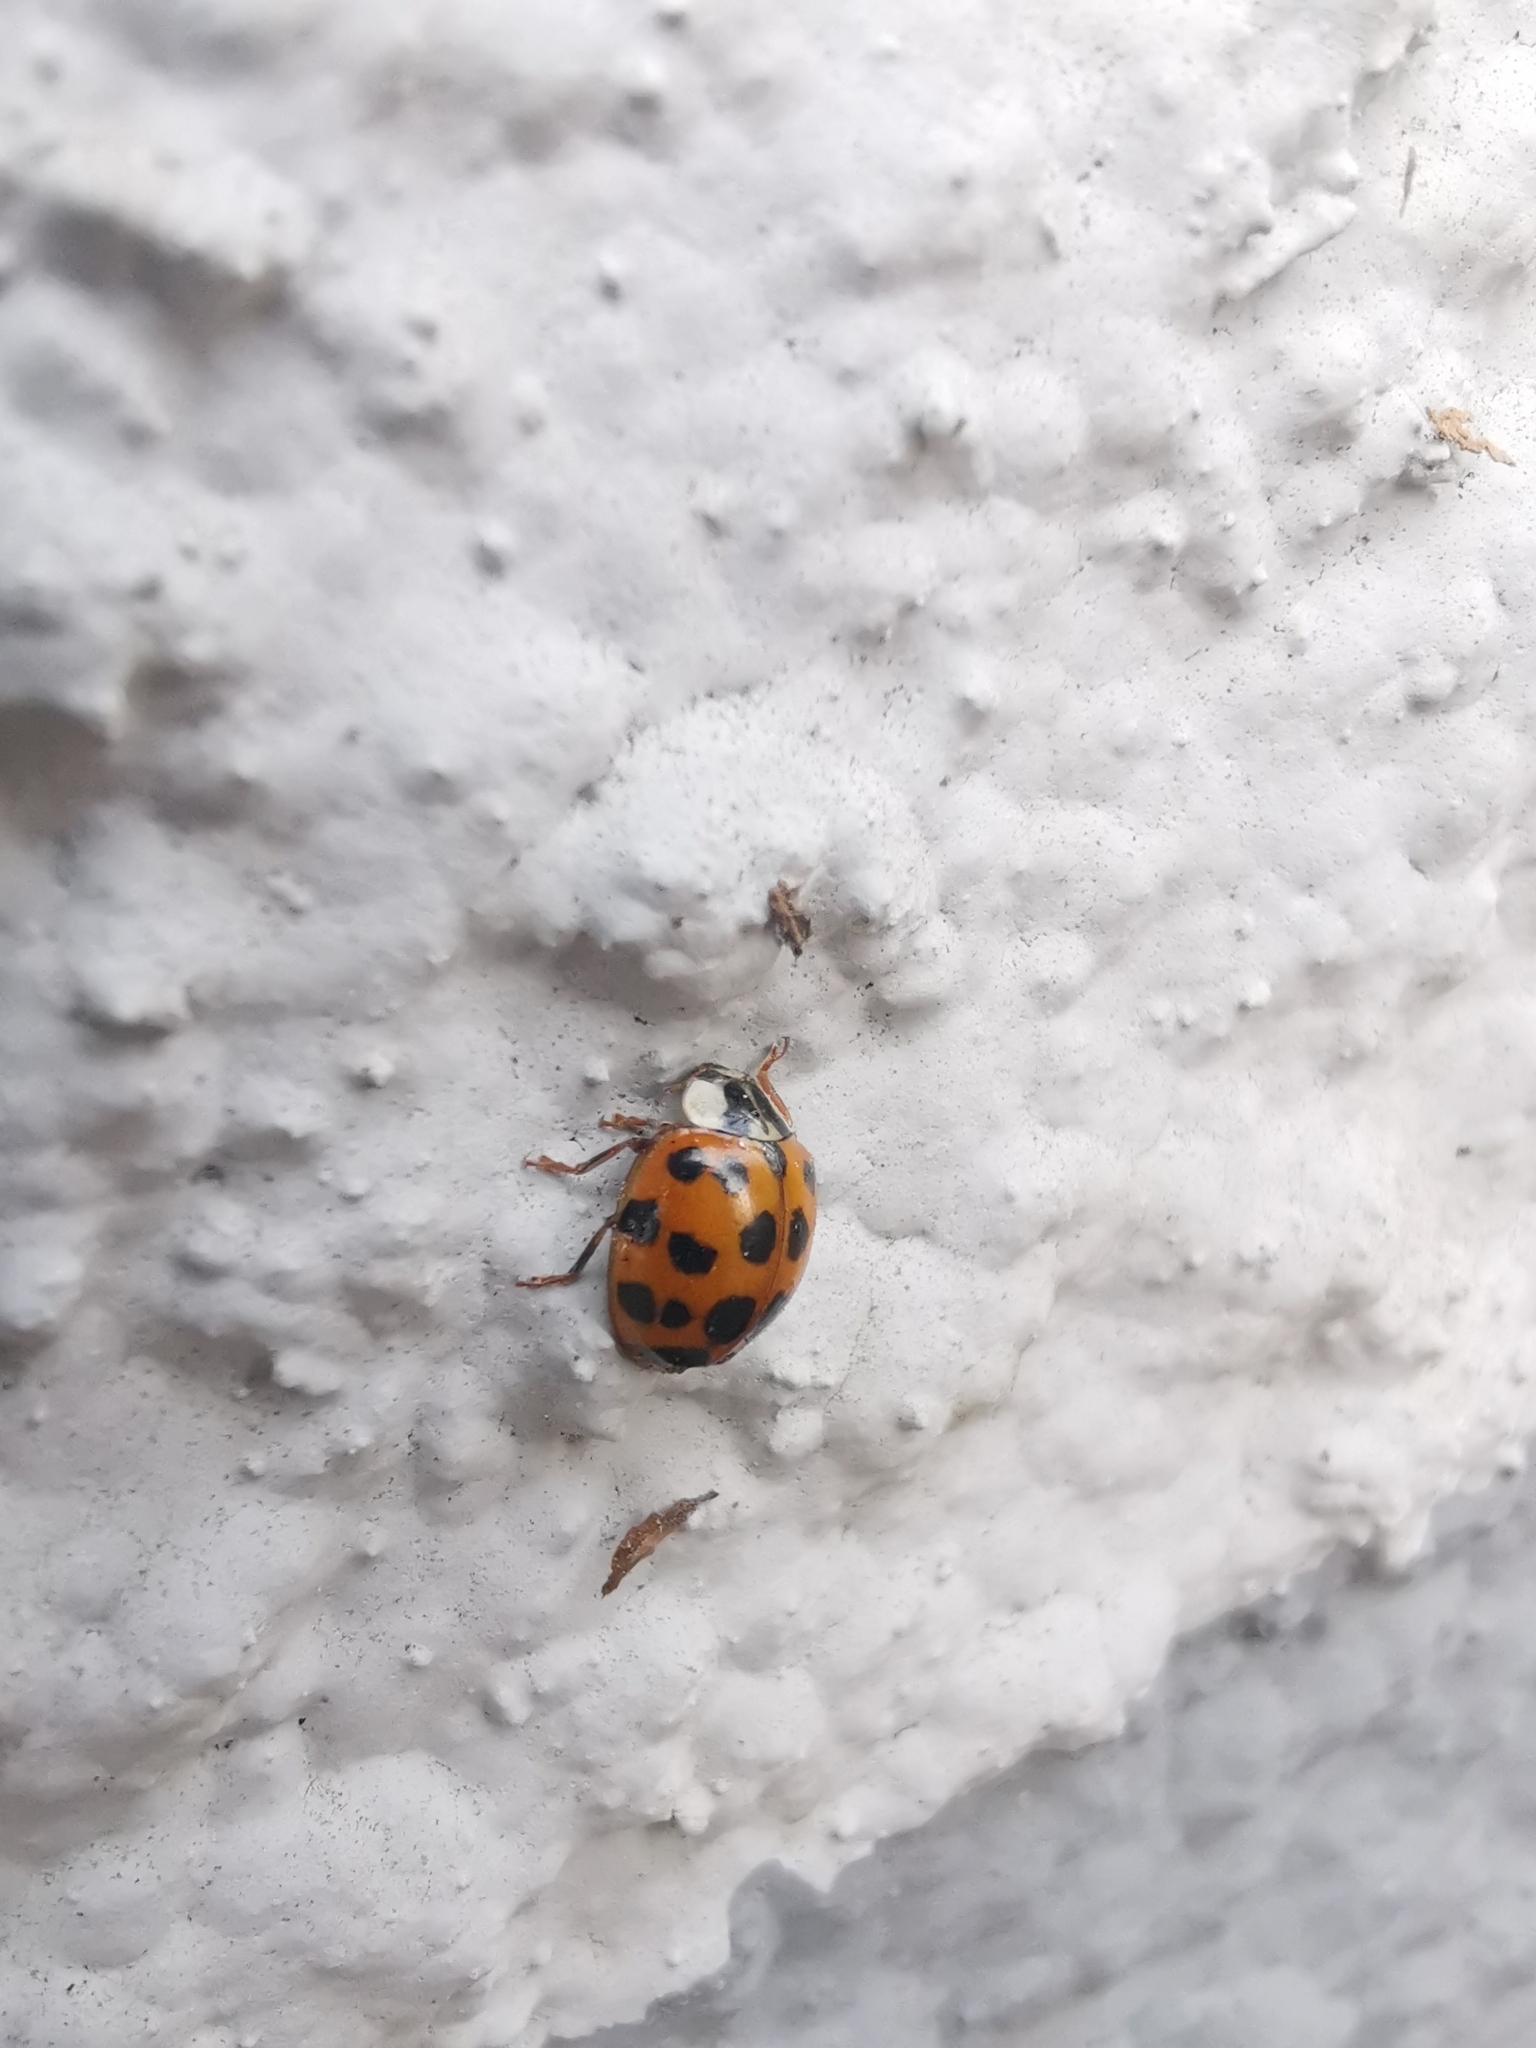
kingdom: Animalia
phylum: Arthropoda
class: Insecta
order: Coleoptera
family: Coccinellidae
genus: Harmonia
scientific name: Harmonia axyridis
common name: Harlequin ladybird
